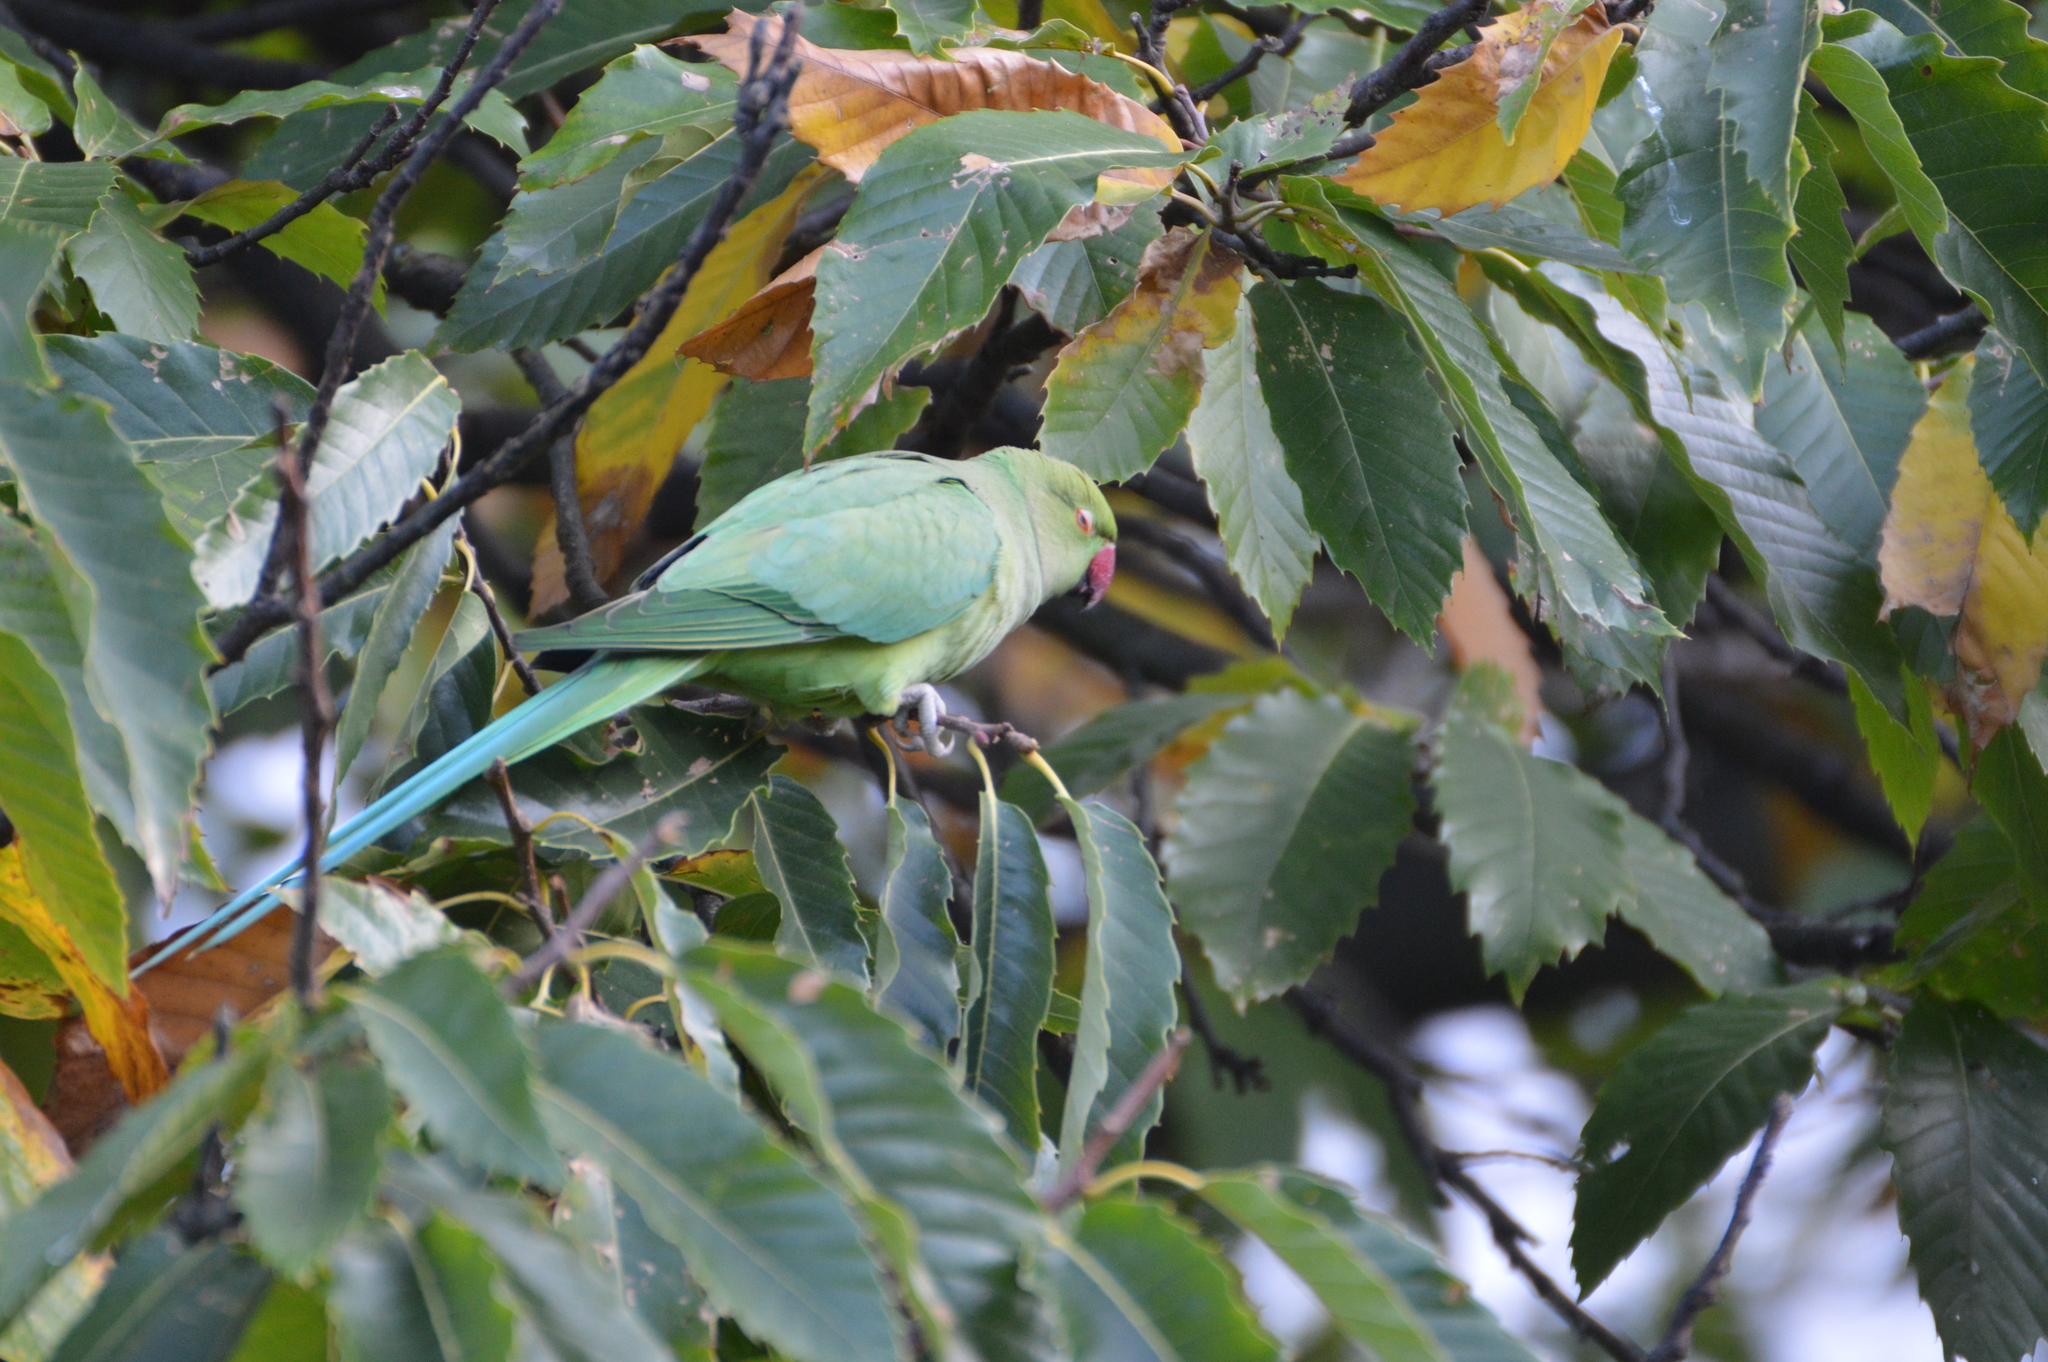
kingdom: Animalia
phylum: Chordata
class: Aves
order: Psittaciformes
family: Psittacidae
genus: Psittacula
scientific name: Psittacula krameri
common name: Rose-ringed parakeet
